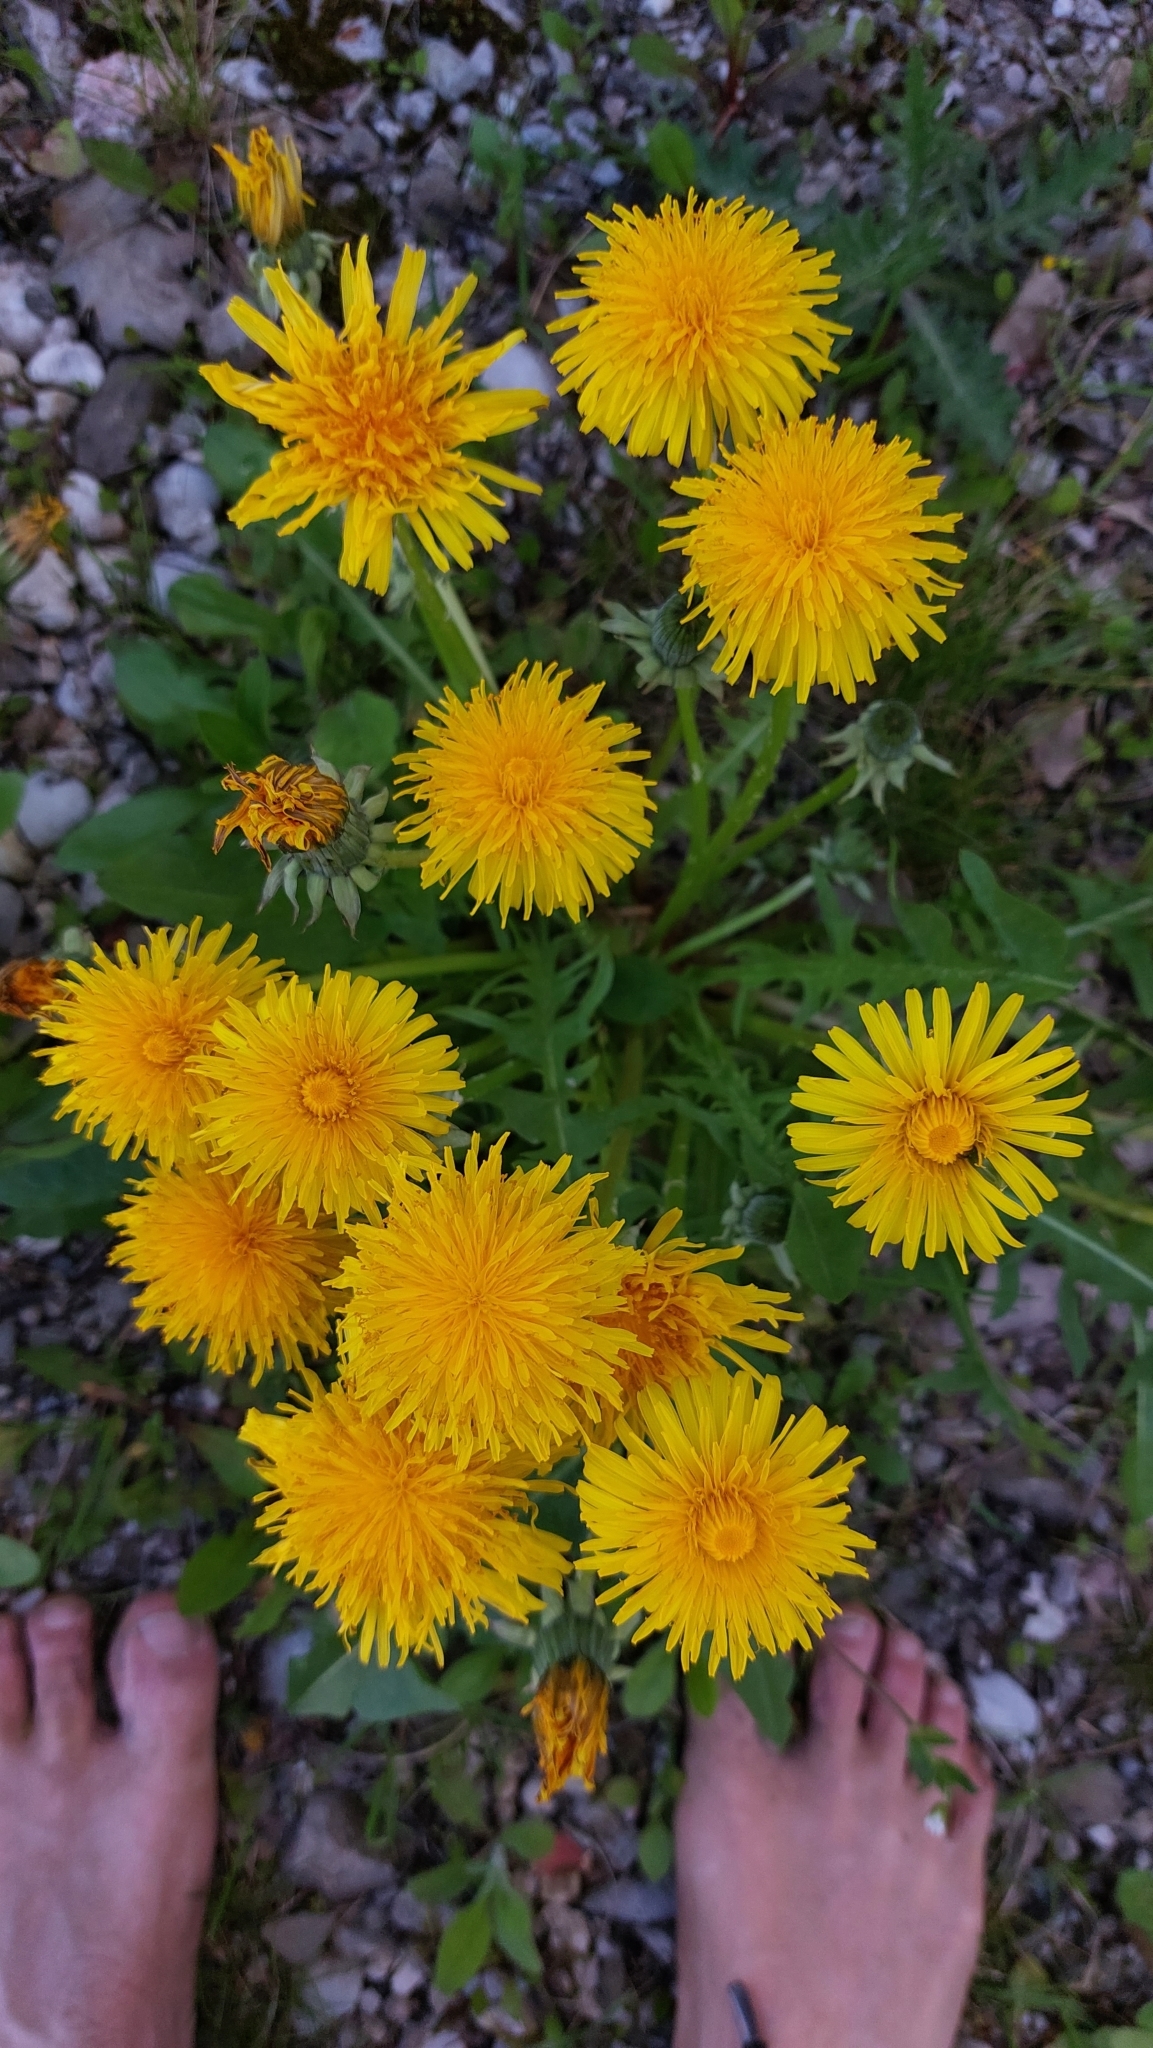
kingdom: Plantae
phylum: Tracheophyta
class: Magnoliopsida
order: Asterales
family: Asteraceae
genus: Taraxacum
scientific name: Taraxacum
